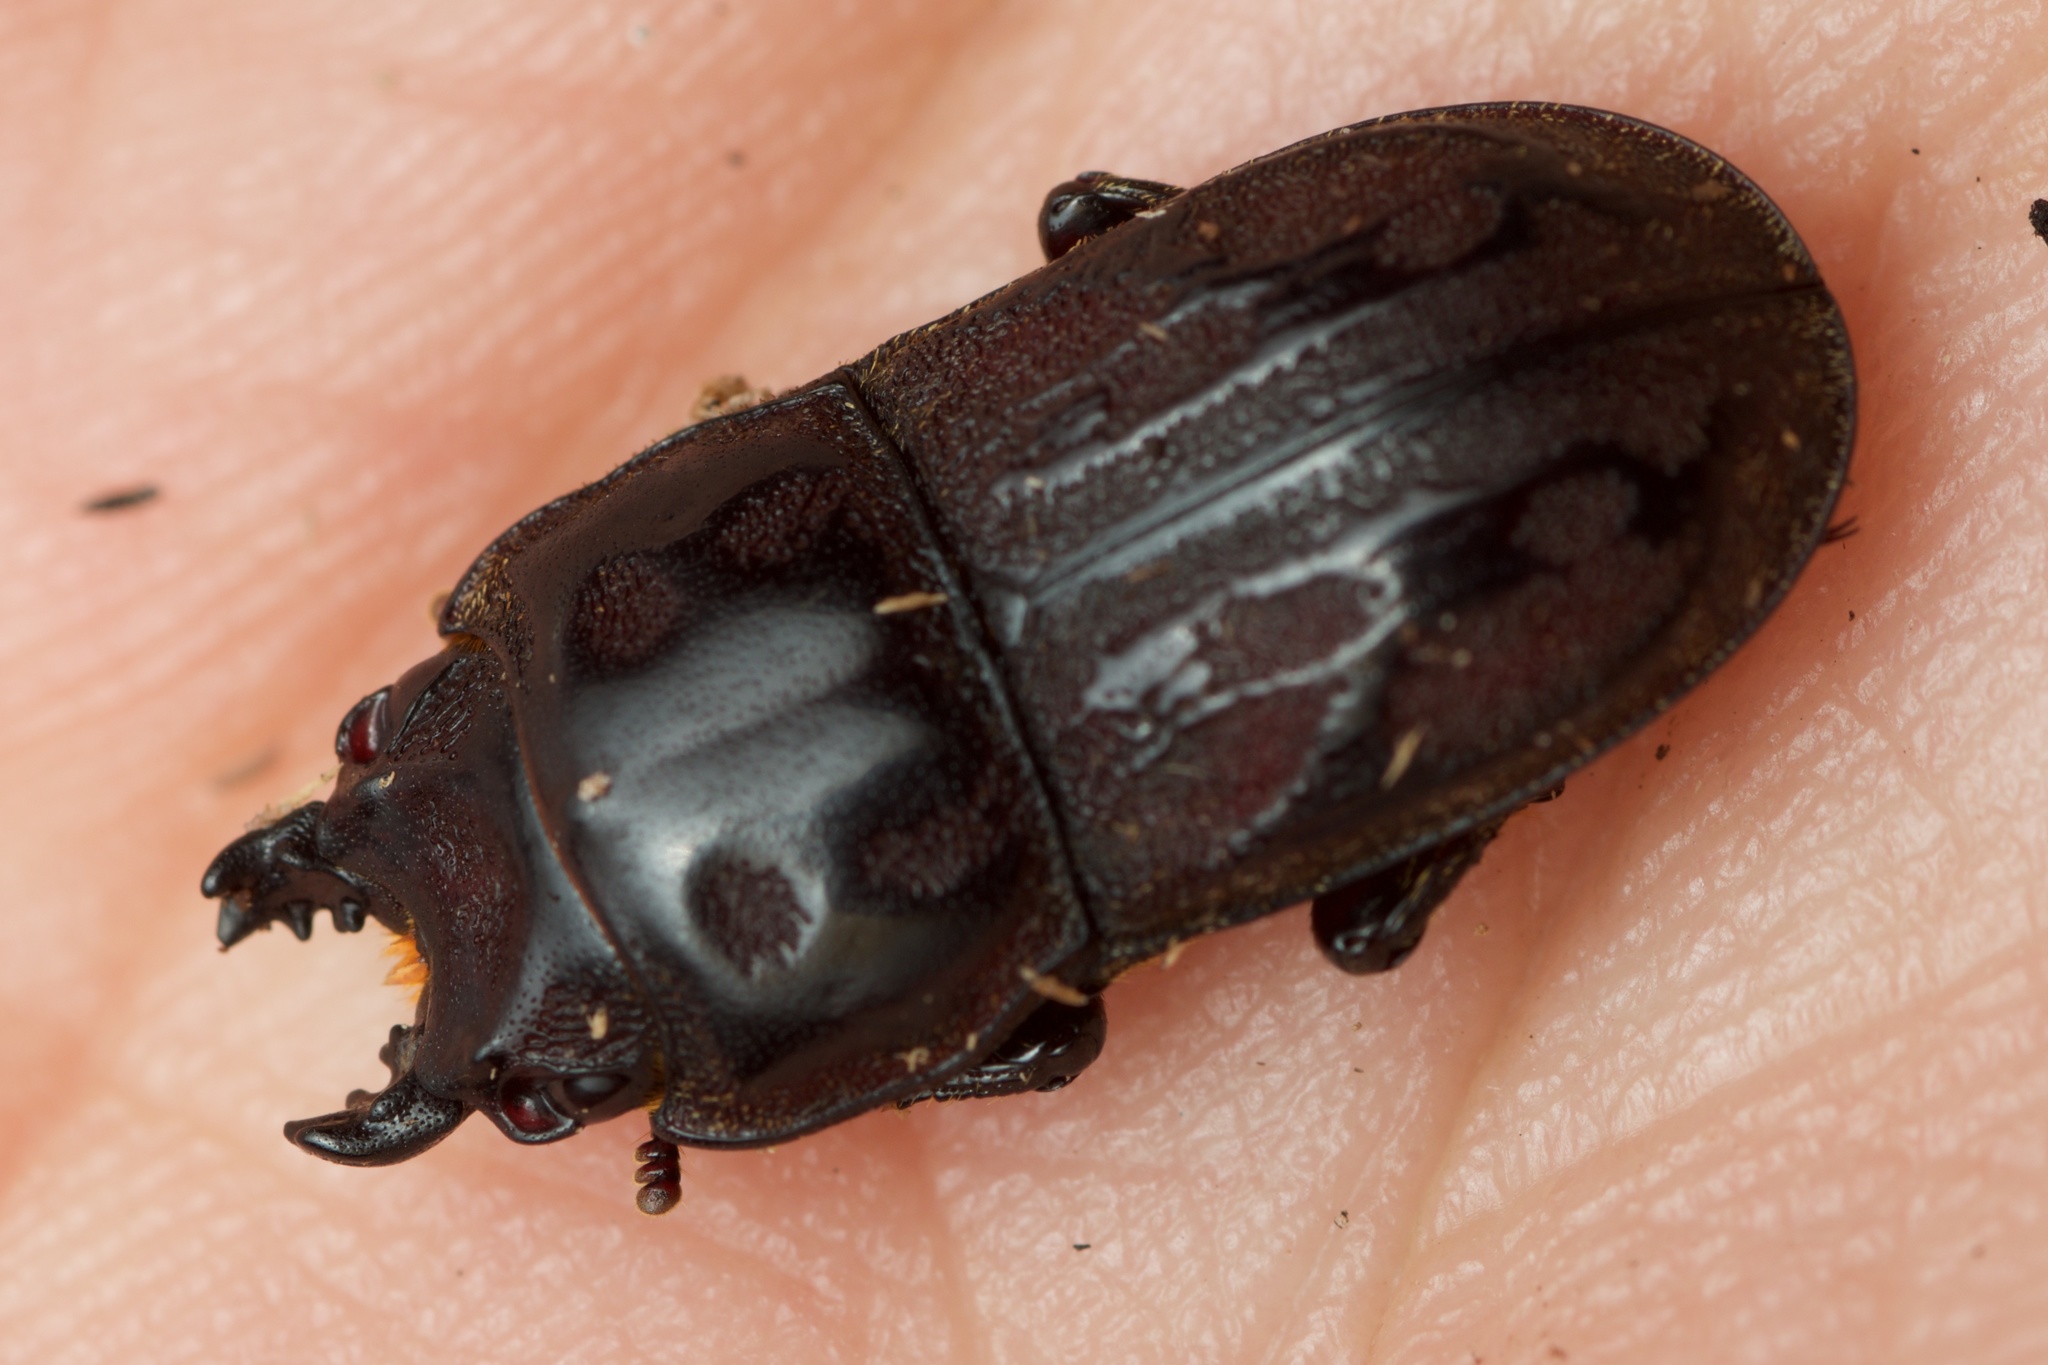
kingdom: Animalia
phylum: Arthropoda
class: Insecta
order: Coleoptera
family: Lucanidae
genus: Paralissotes
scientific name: Paralissotes reticulatus
